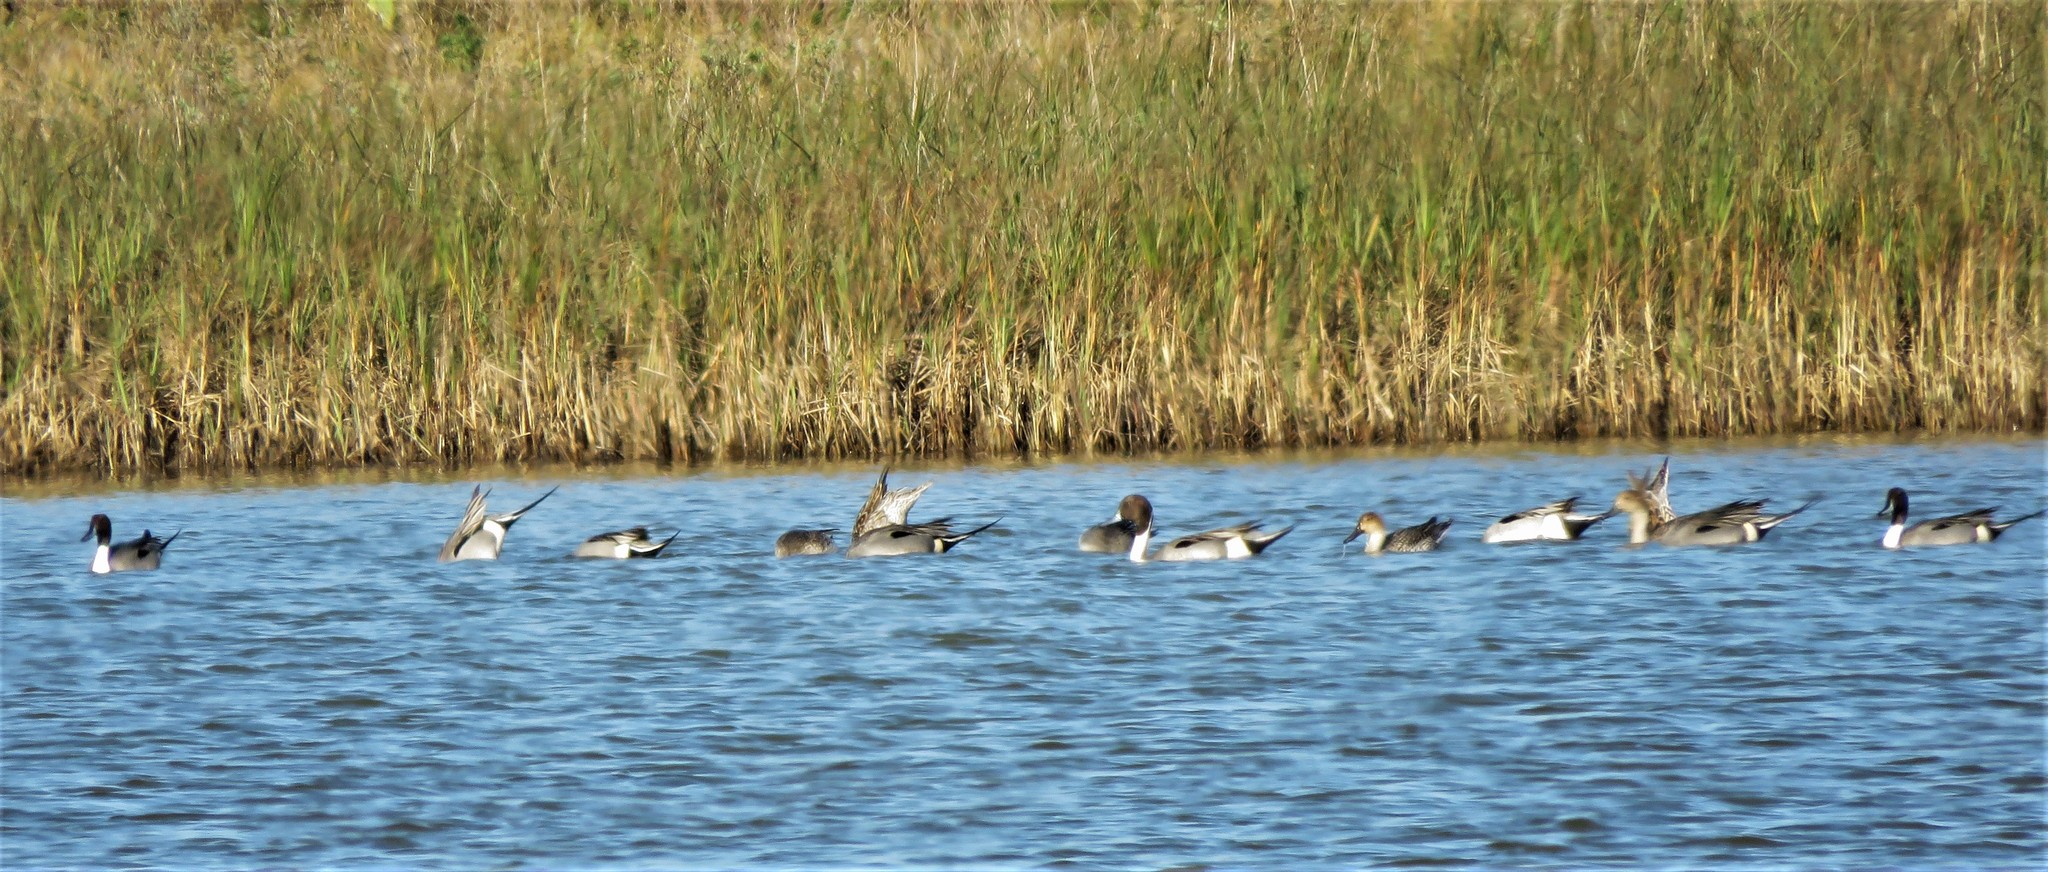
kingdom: Animalia
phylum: Chordata
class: Aves
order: Anseriformes
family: Anatidae
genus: Anas
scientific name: Anas acuta
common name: Northern pintail
